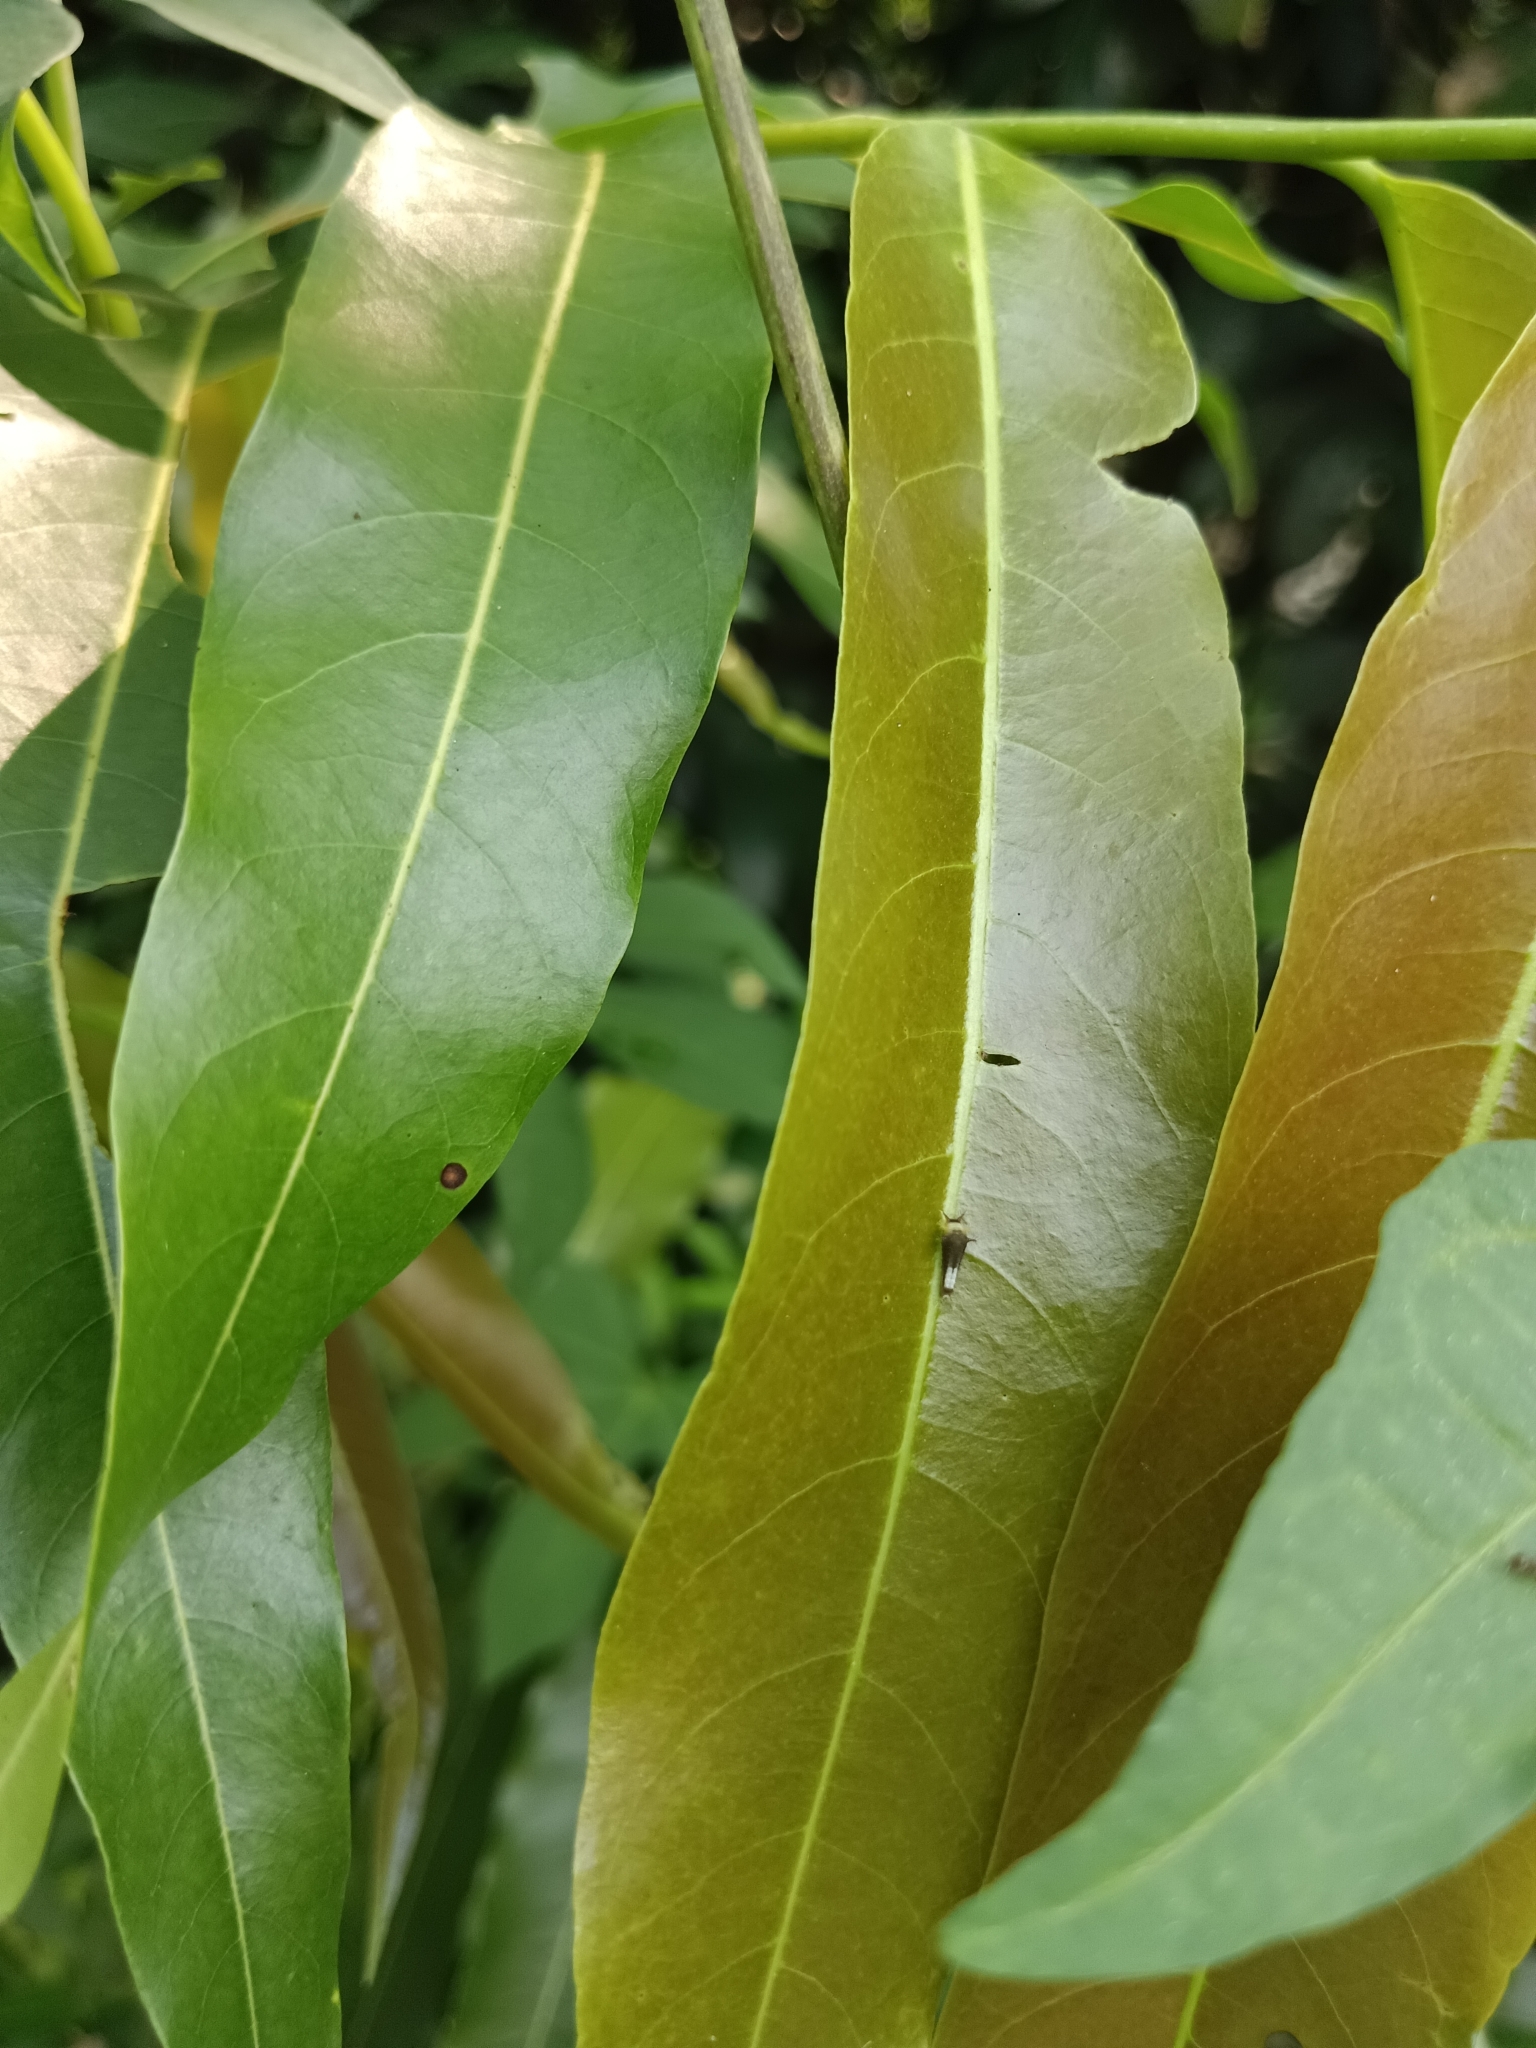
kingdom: Animalia
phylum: Arthropoda
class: Insecta
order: Lepidoptera
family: Papilionidae
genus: Graphium
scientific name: Graphium agamemnon
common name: Tailed jay
